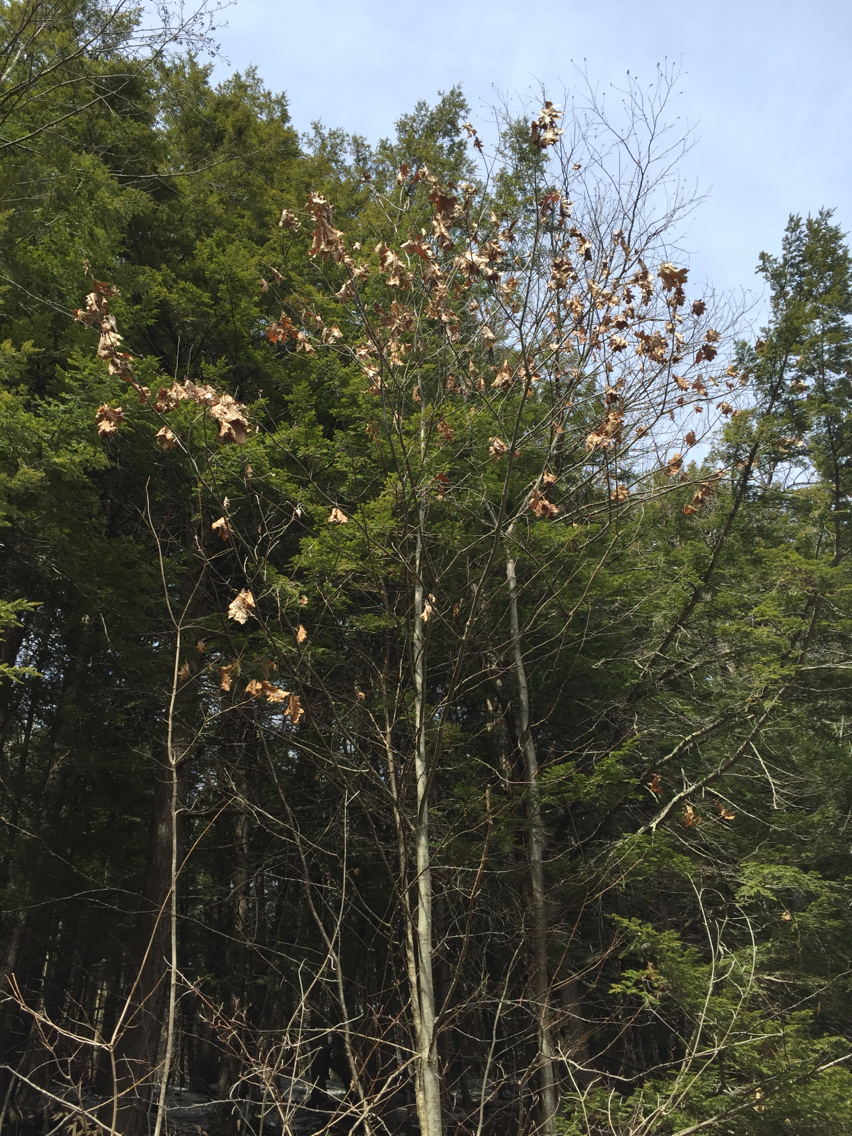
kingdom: Plantae
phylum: Tracheophyta
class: Magnoliopsida
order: Fagales
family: Fagaceae
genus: Quercus
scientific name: Quercus rubra
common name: Red oak
